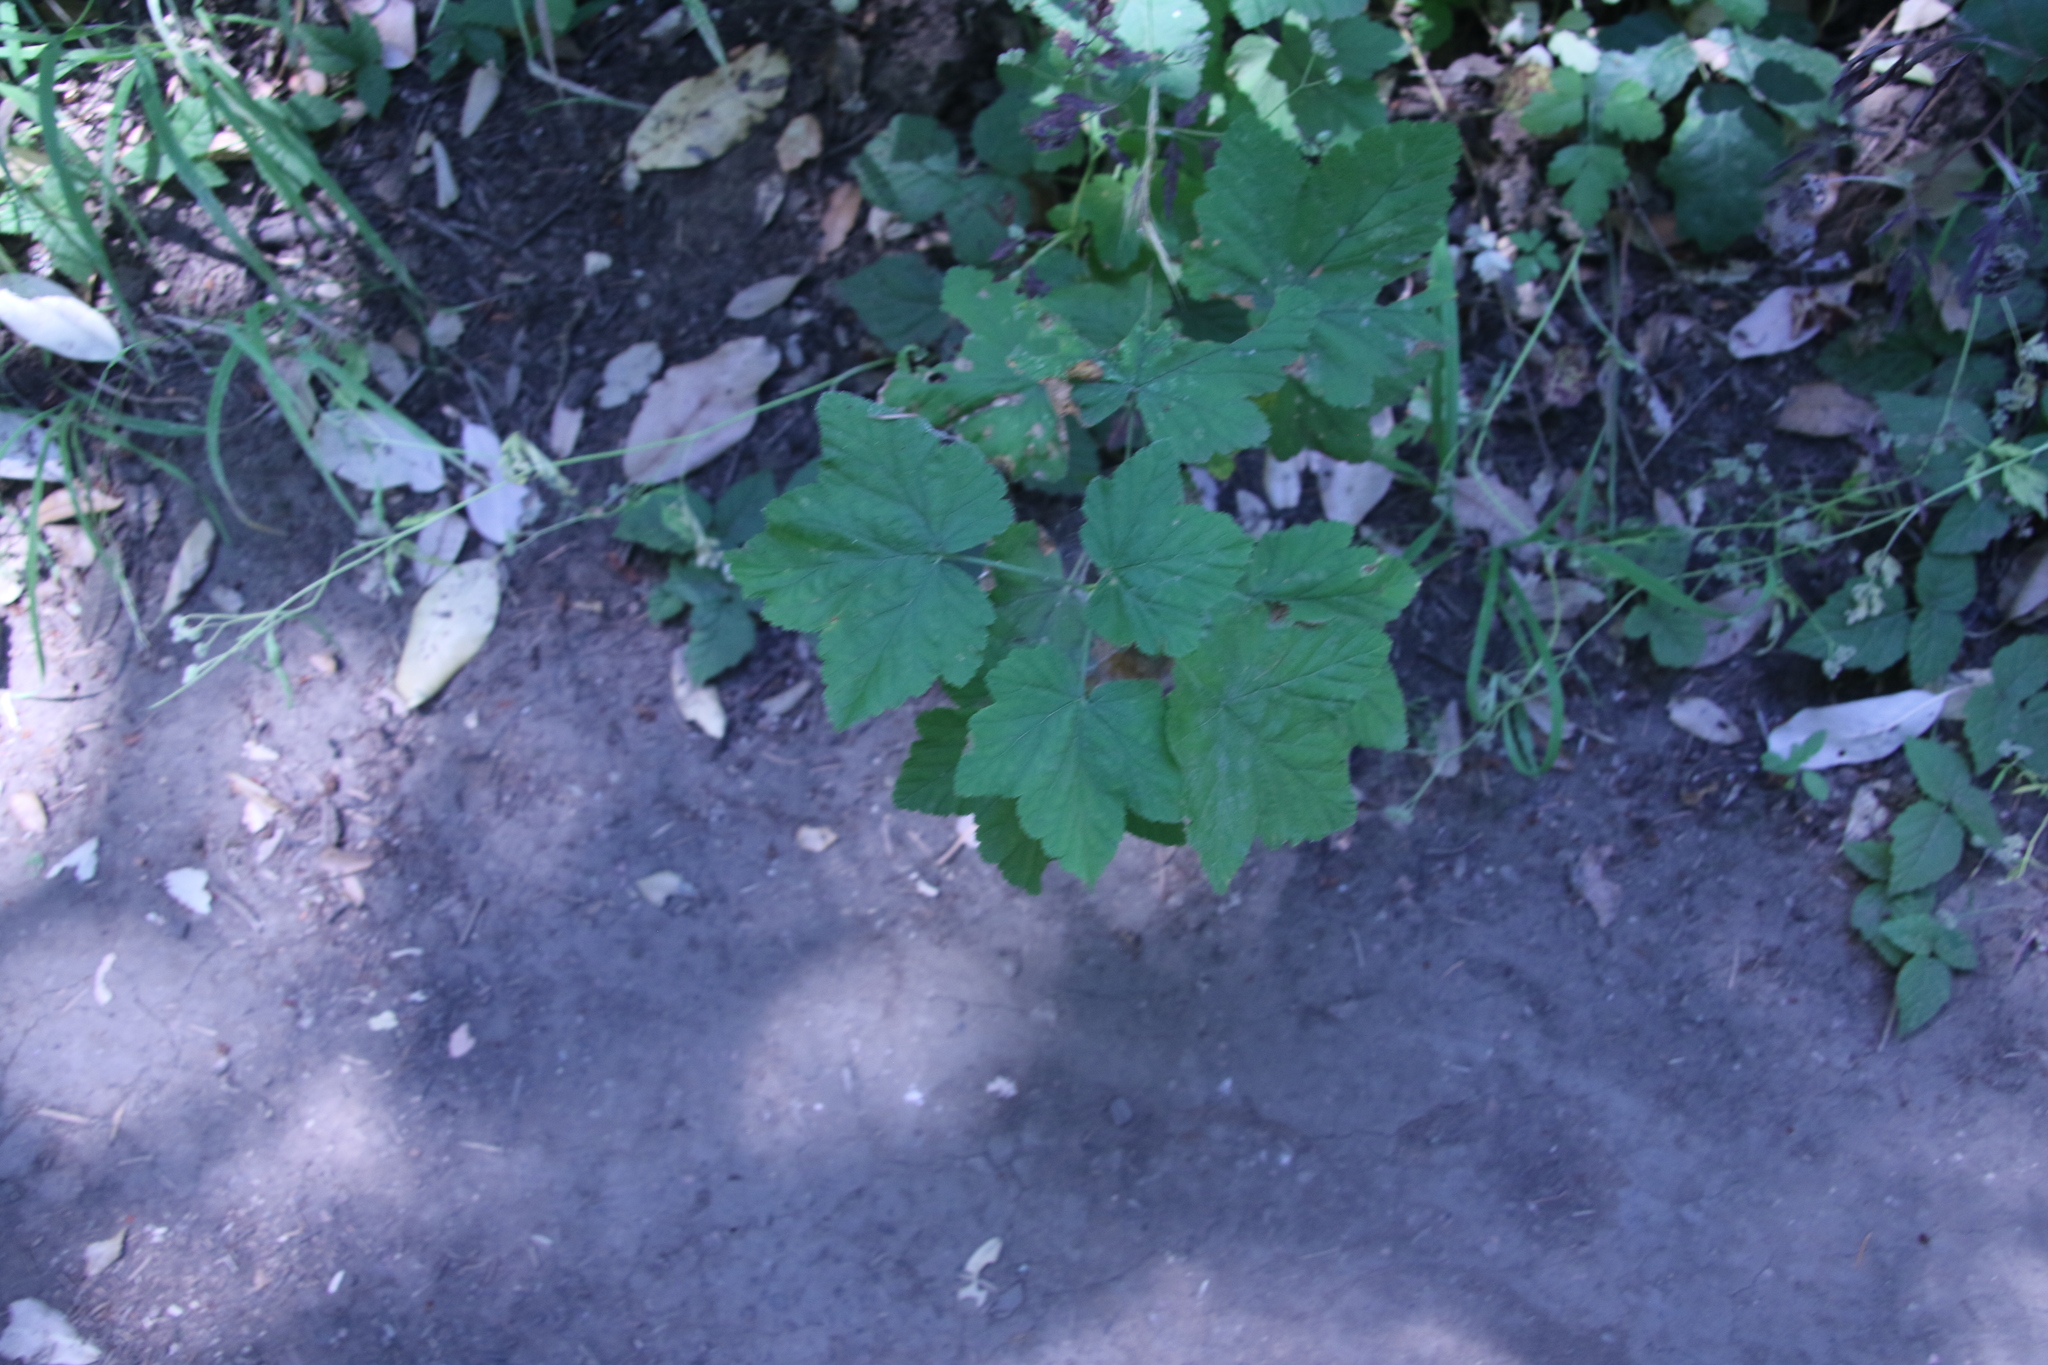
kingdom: Plantae
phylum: Tracheophyta
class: Magnoliopsida
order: Rosales
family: Rosaceae
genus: Rubus
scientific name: Rubus parviflorus
